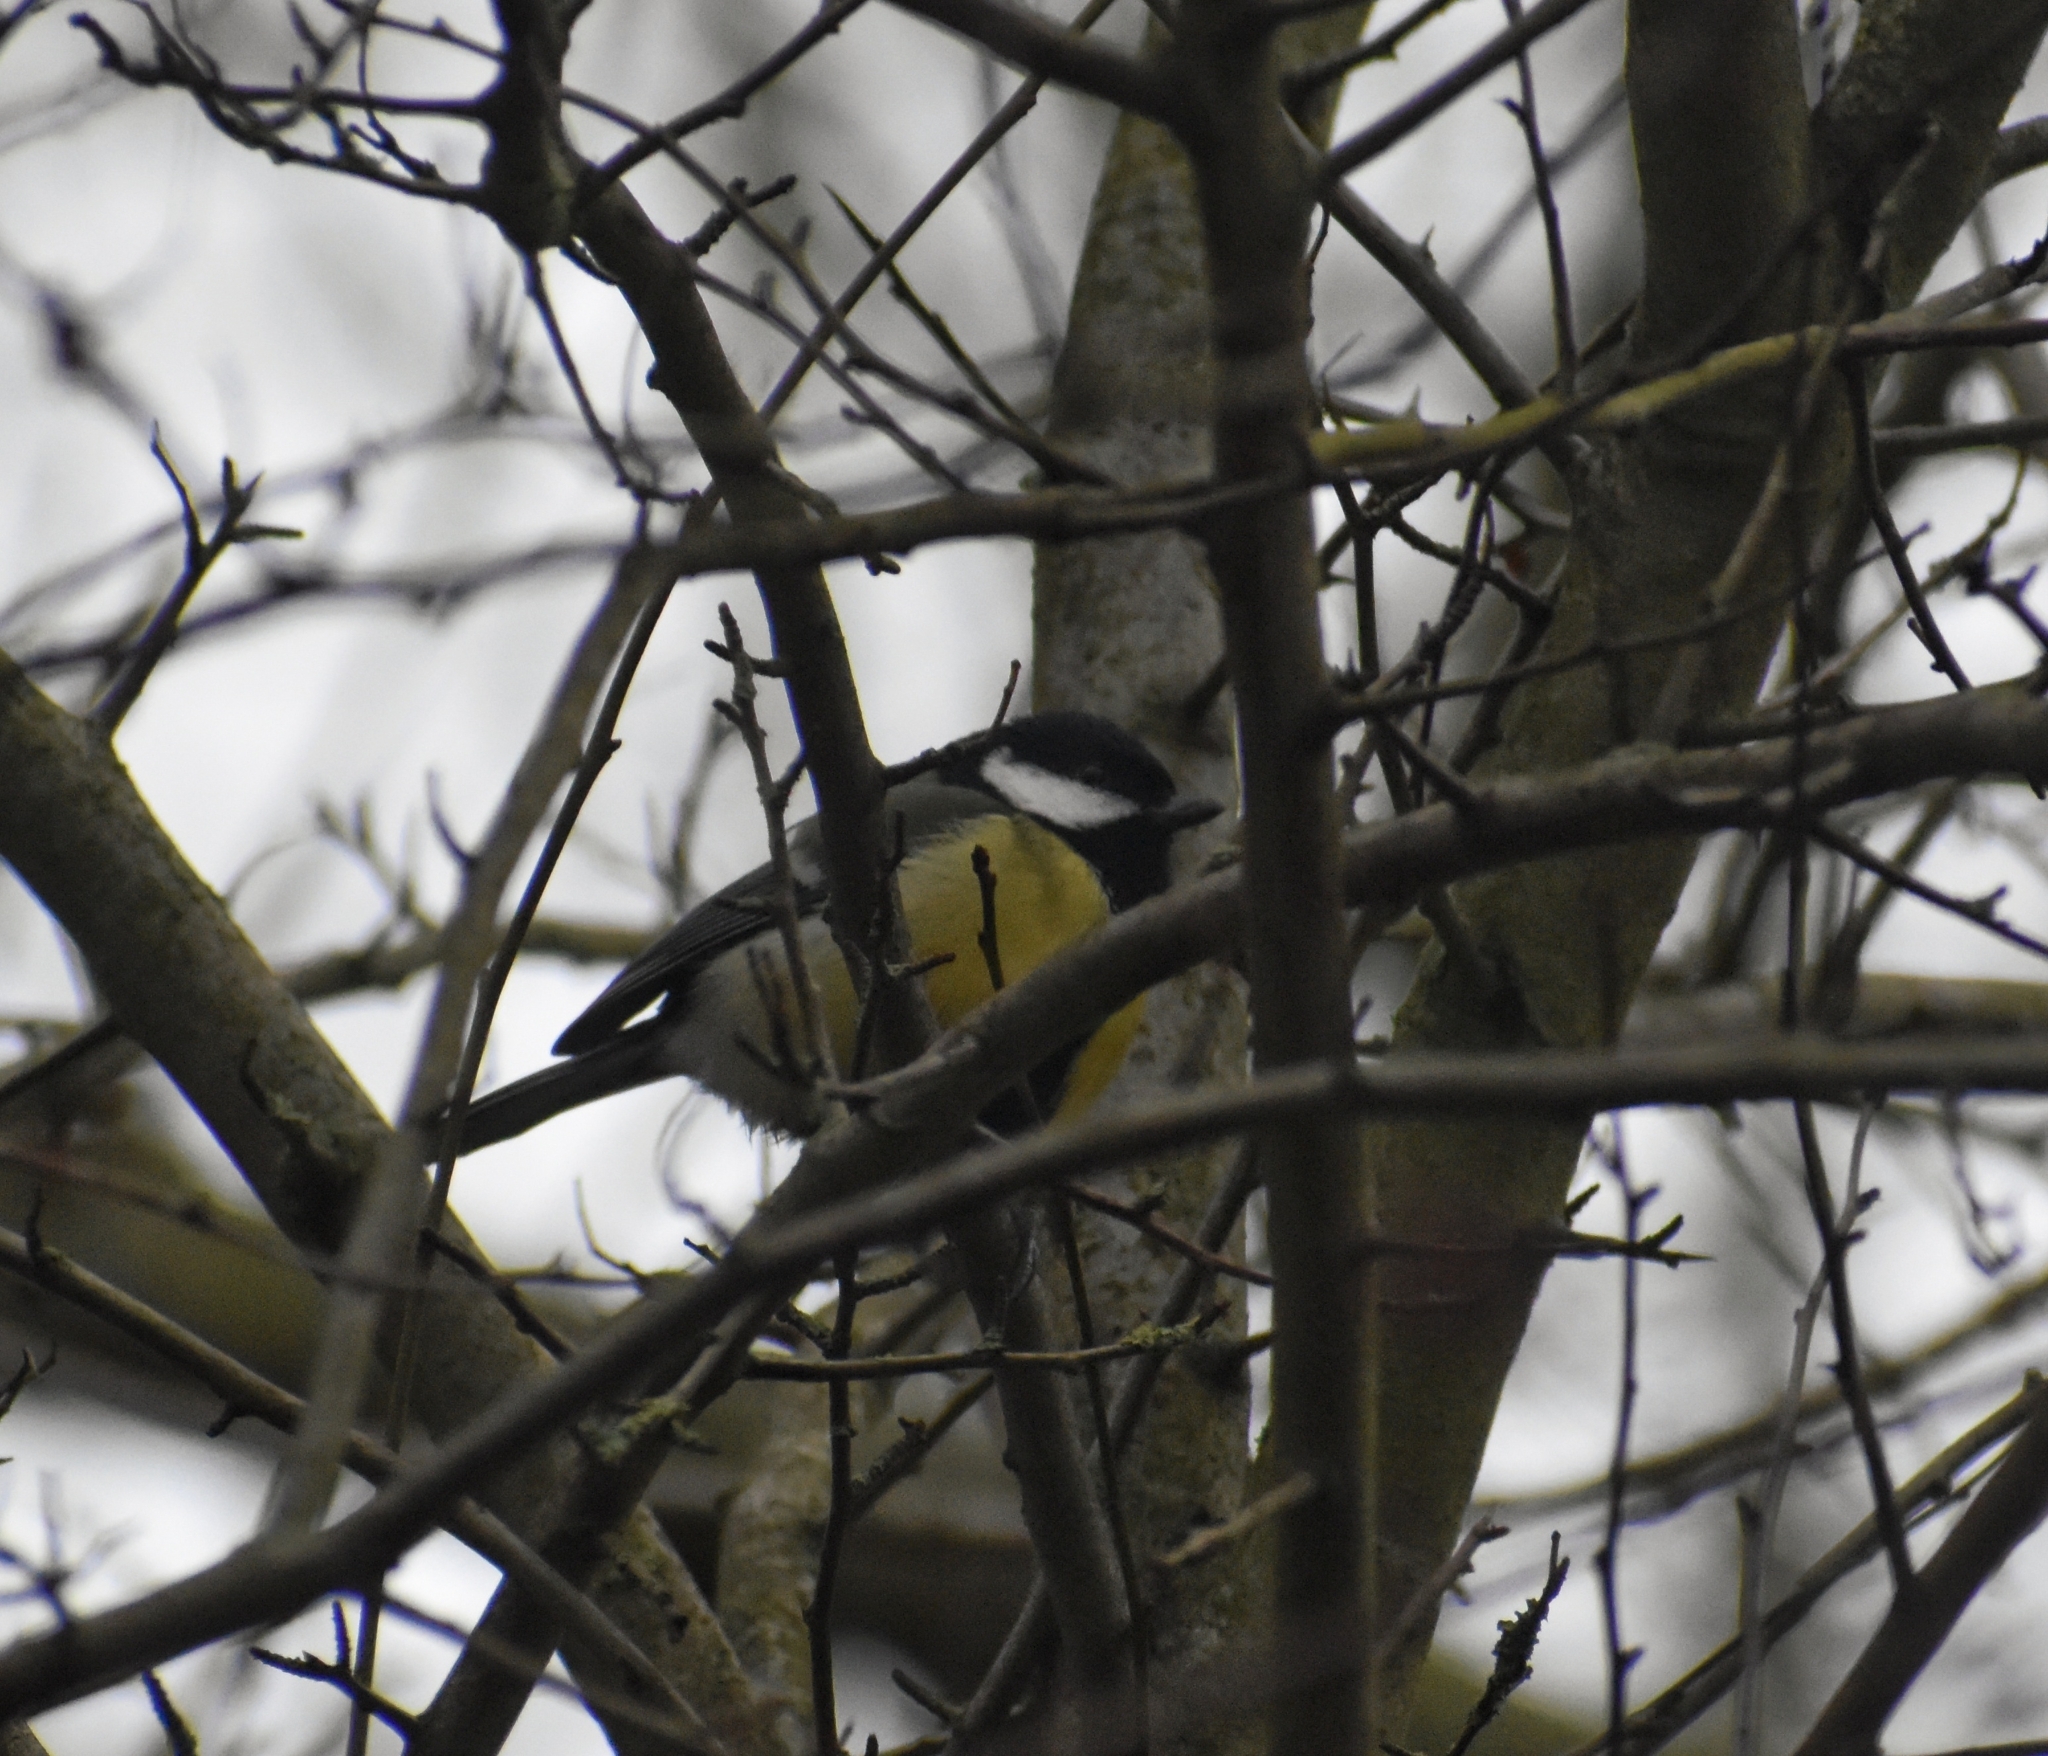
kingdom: Animalia
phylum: Chordata
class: Aves
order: Passeriformes
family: Paridae
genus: Parus
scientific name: Parus major
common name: Great tit
